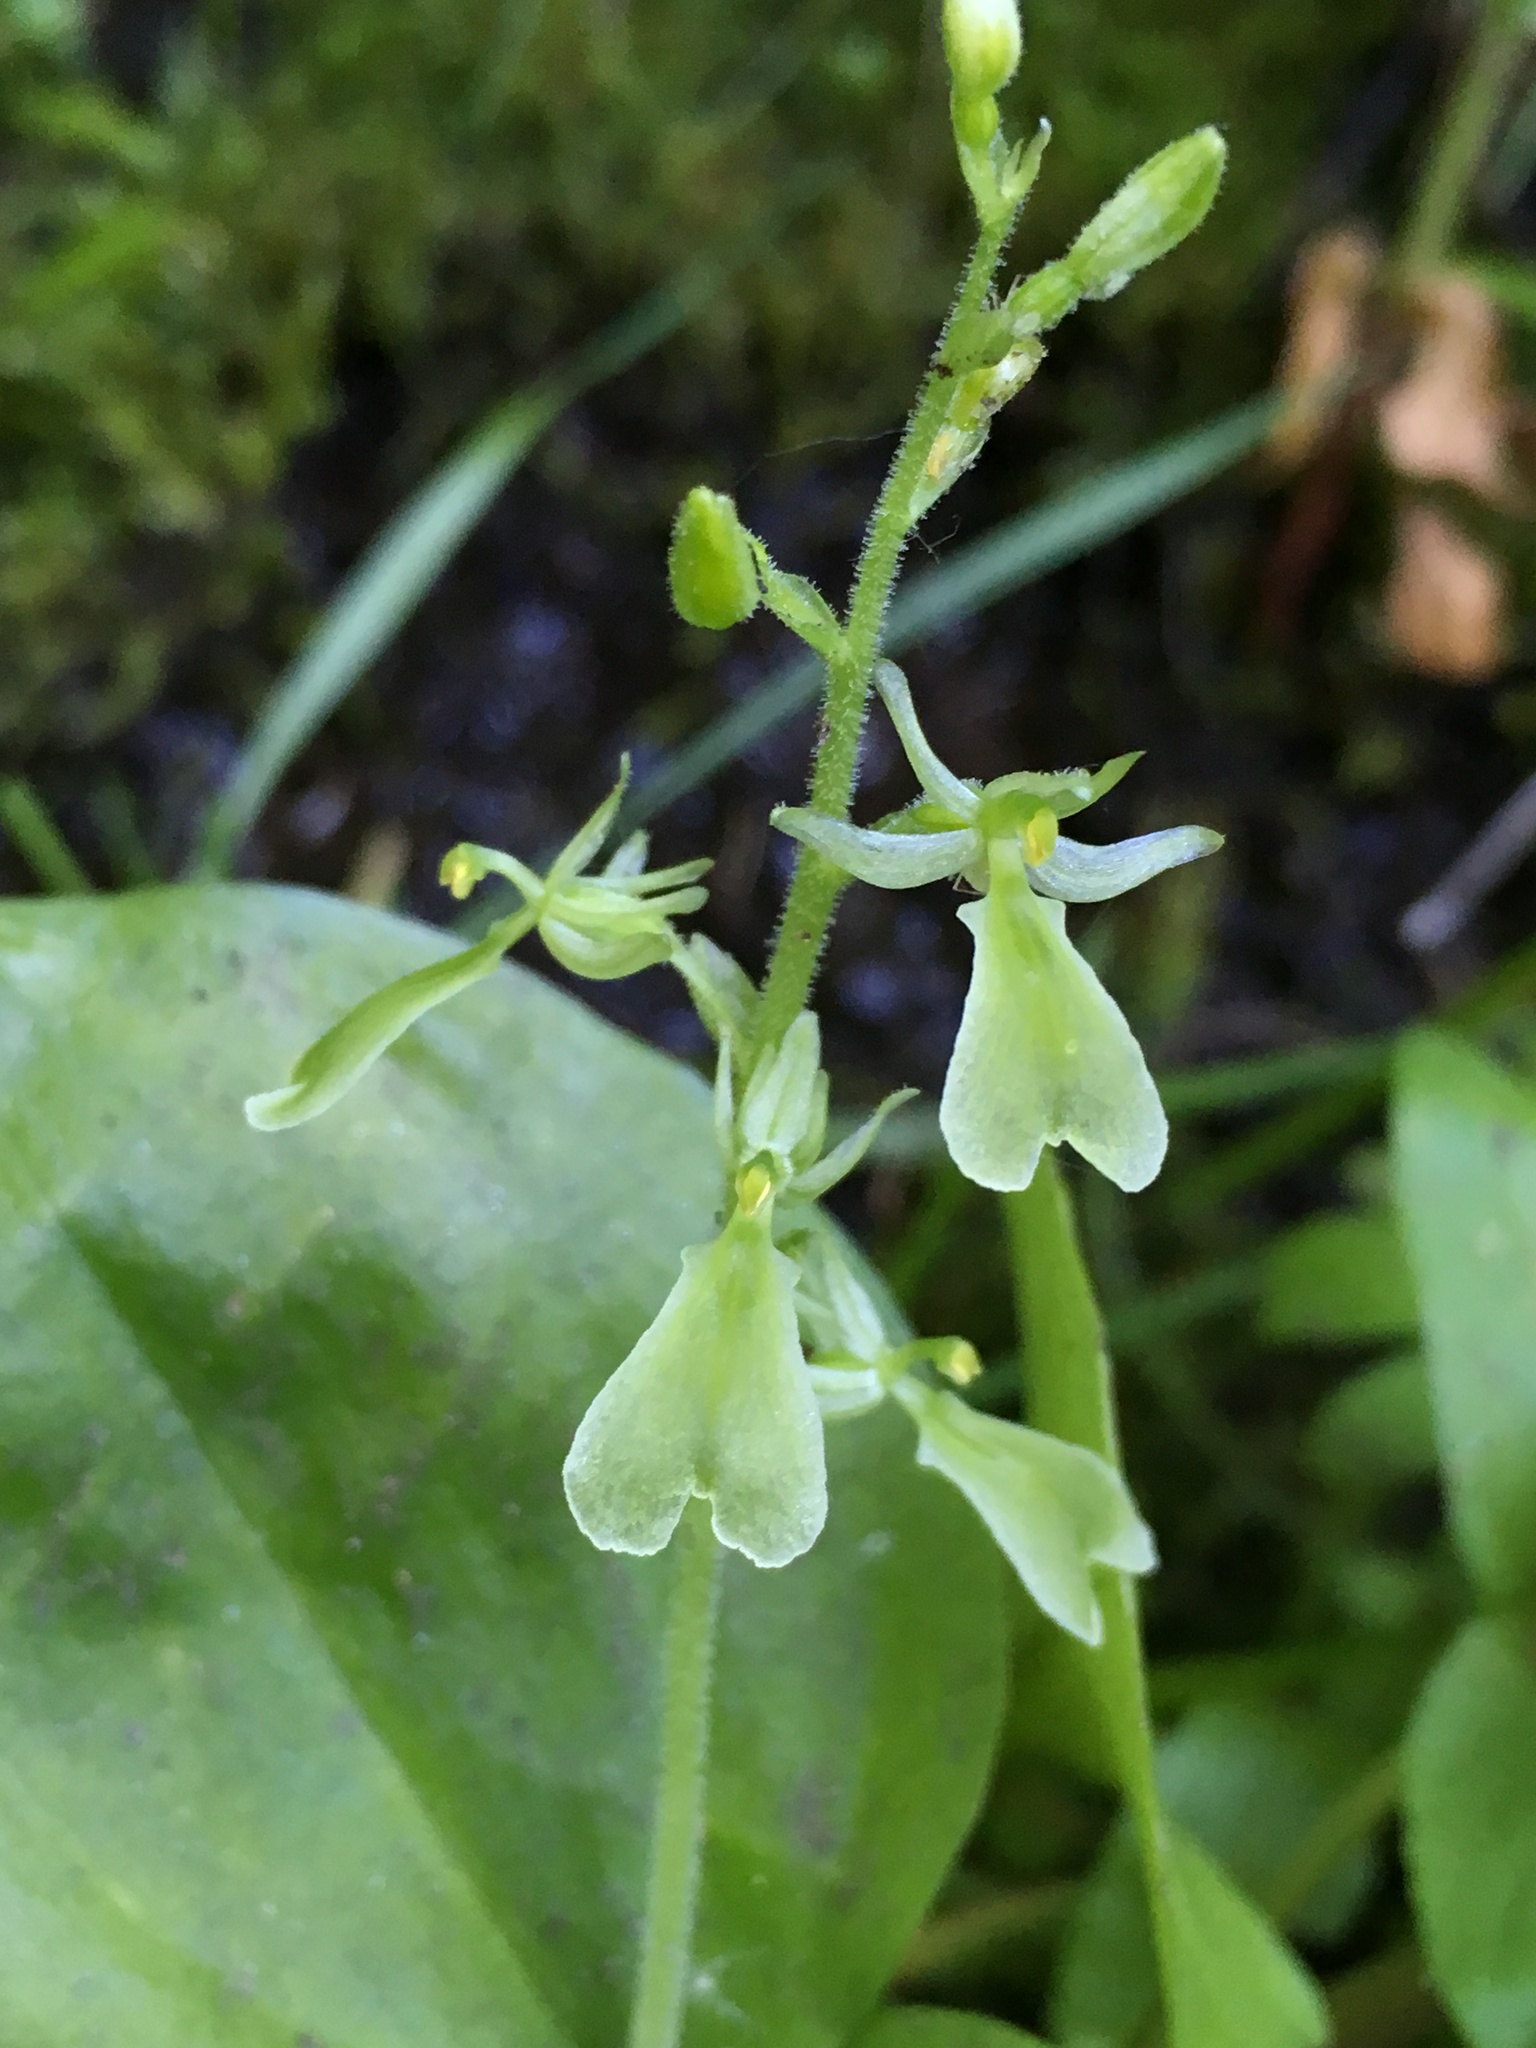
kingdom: Plantae
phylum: Tracheophyta
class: Liliopsida
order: Asparagales
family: Orchidaceae
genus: Neottia
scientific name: Neottia convallarioides
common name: Broadleaf twayblade
